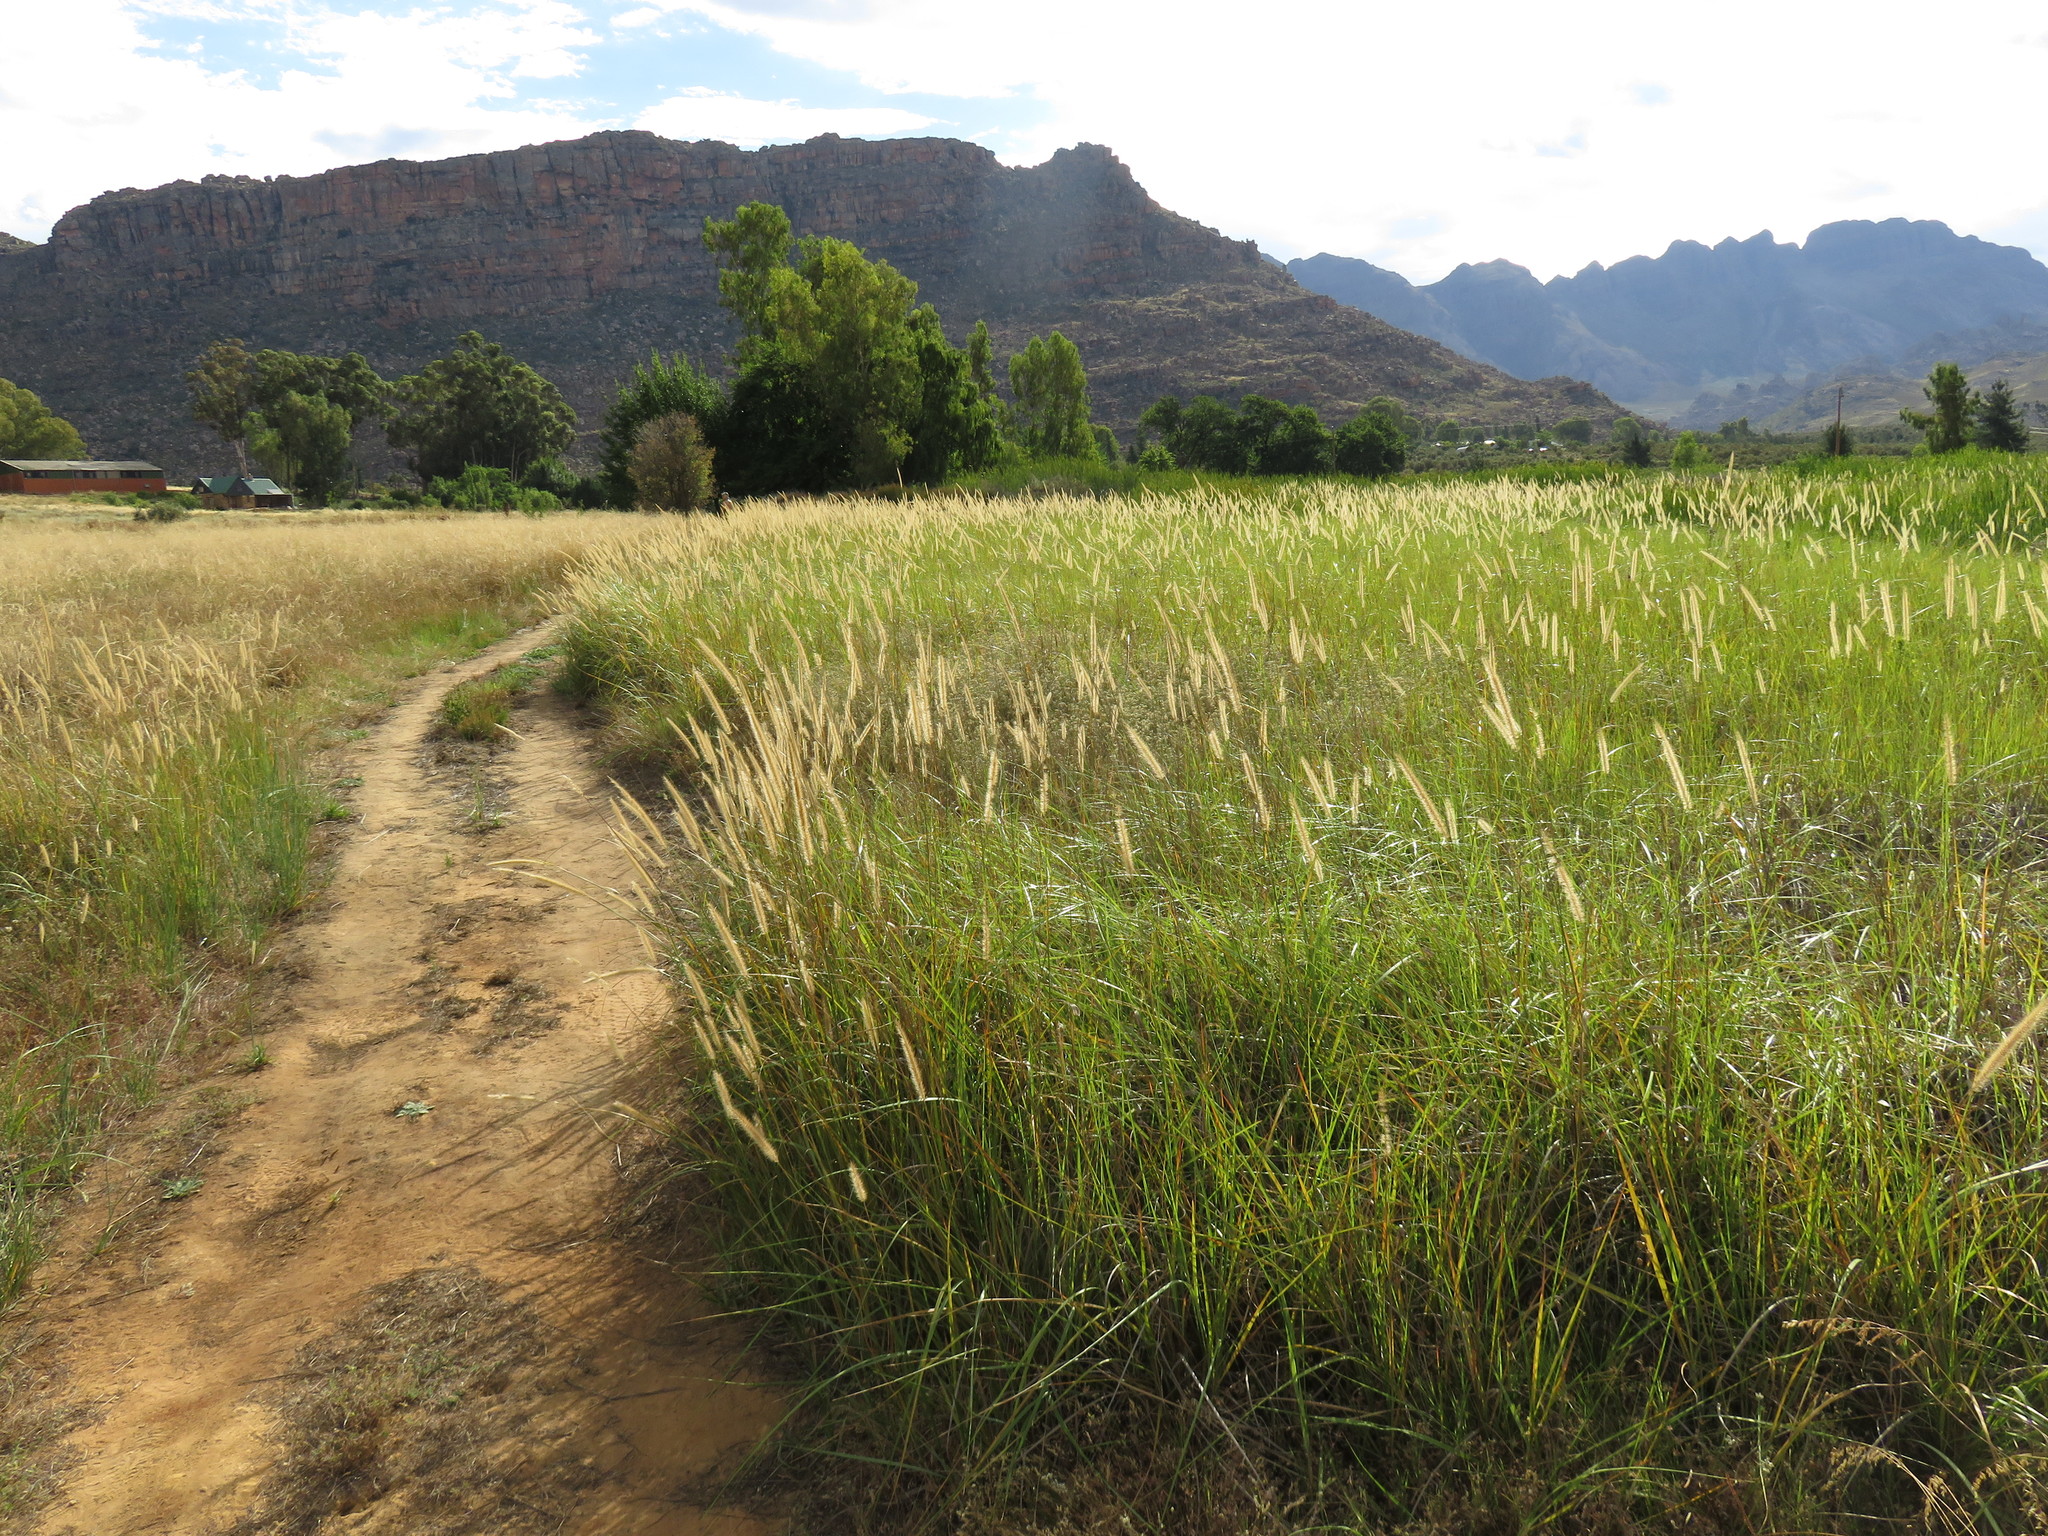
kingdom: Plantae
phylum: Tracheophyta
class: Liliopsida
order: Poales
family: Poaceae
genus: Cenchrus
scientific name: Cenchrus caudatus
